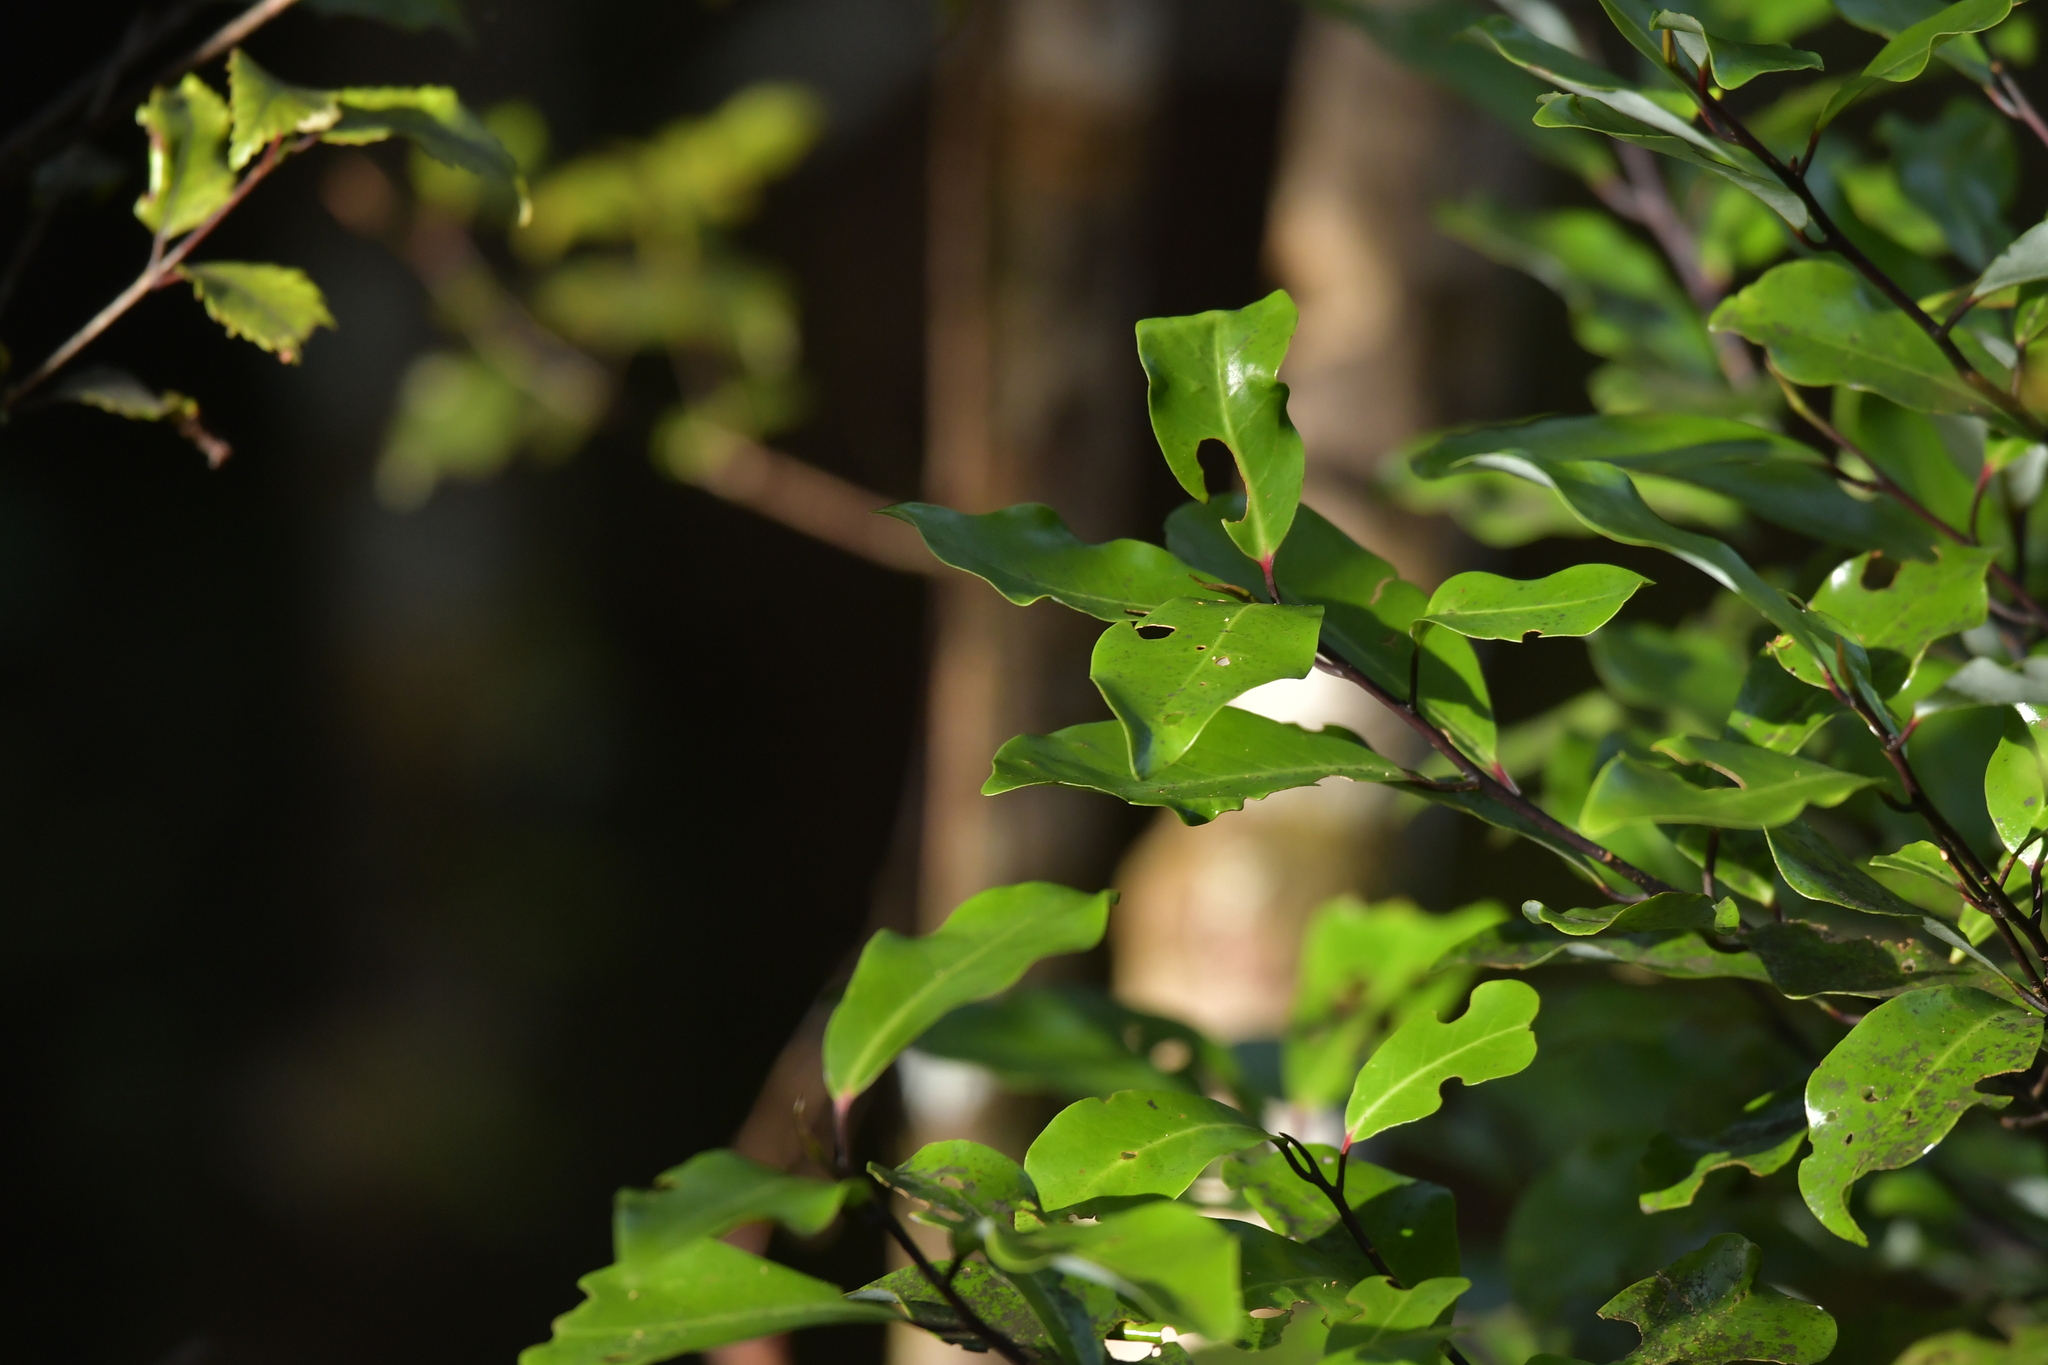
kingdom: Plantae
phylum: Tracheophyta
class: Magnoliopsida
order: Canellales
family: Winteraceae
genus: Pseudowintera
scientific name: Pseudowintera axillaris
